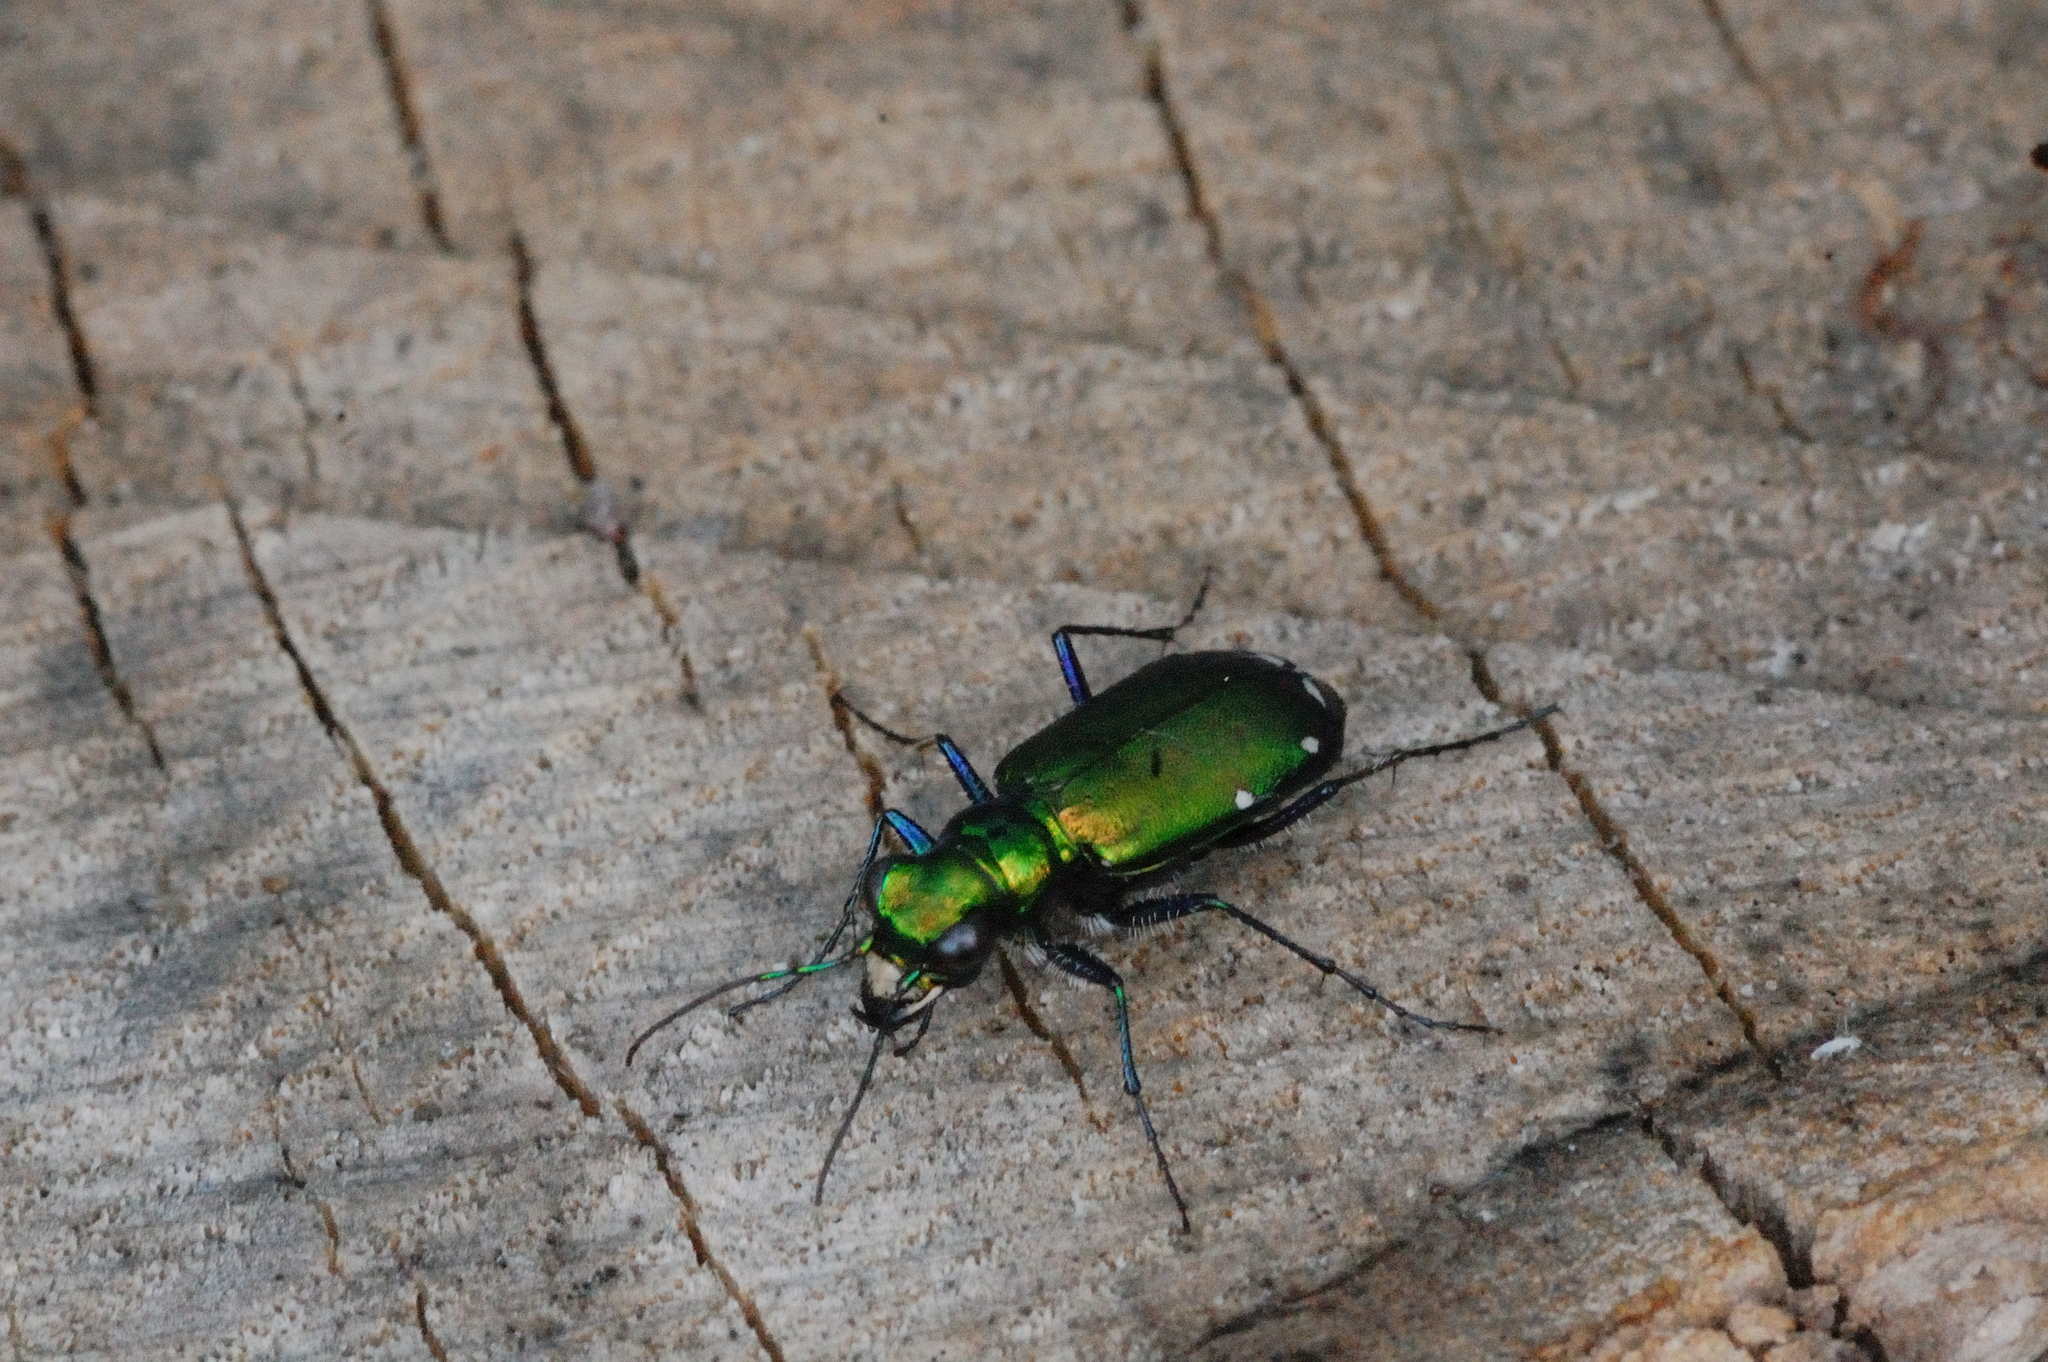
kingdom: Animalia
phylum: Arthropoda
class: Insecta
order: Coleoptera
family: Carabidae
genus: Cicindela
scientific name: Cicindela sexguttata
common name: Six-spotted tiger beetle
